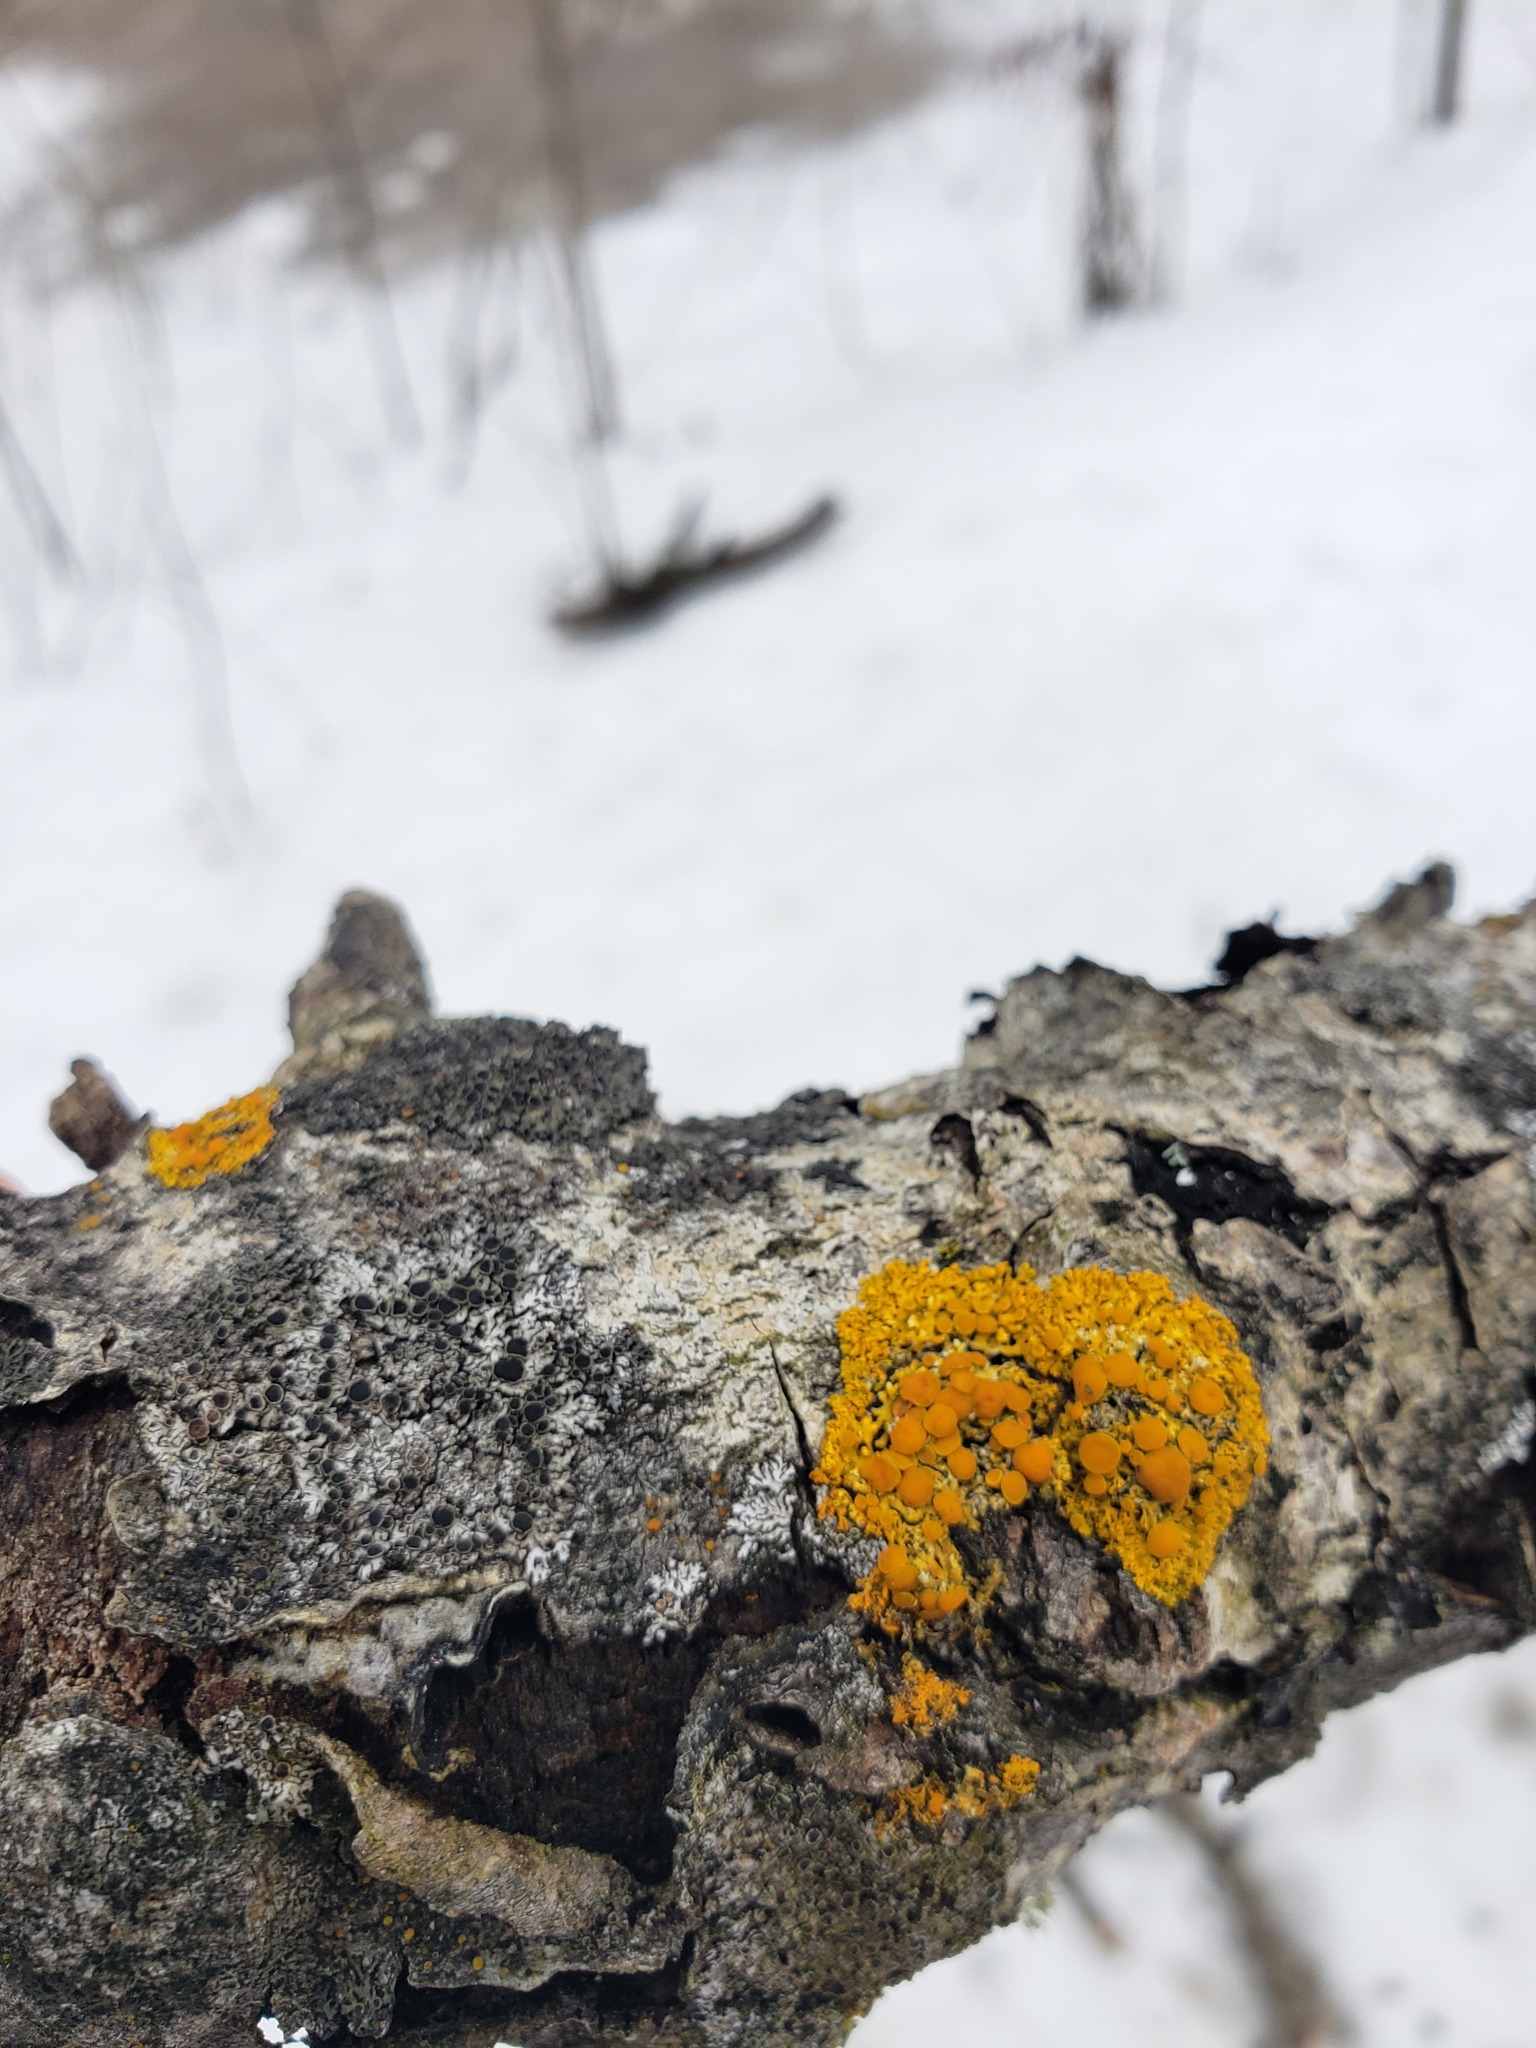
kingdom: Fungi
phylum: Ascomycota
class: Lecanoromycetes
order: Teloschistales
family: Teloschistaceae
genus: Gallowayella
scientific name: Gallowayella hasseana
